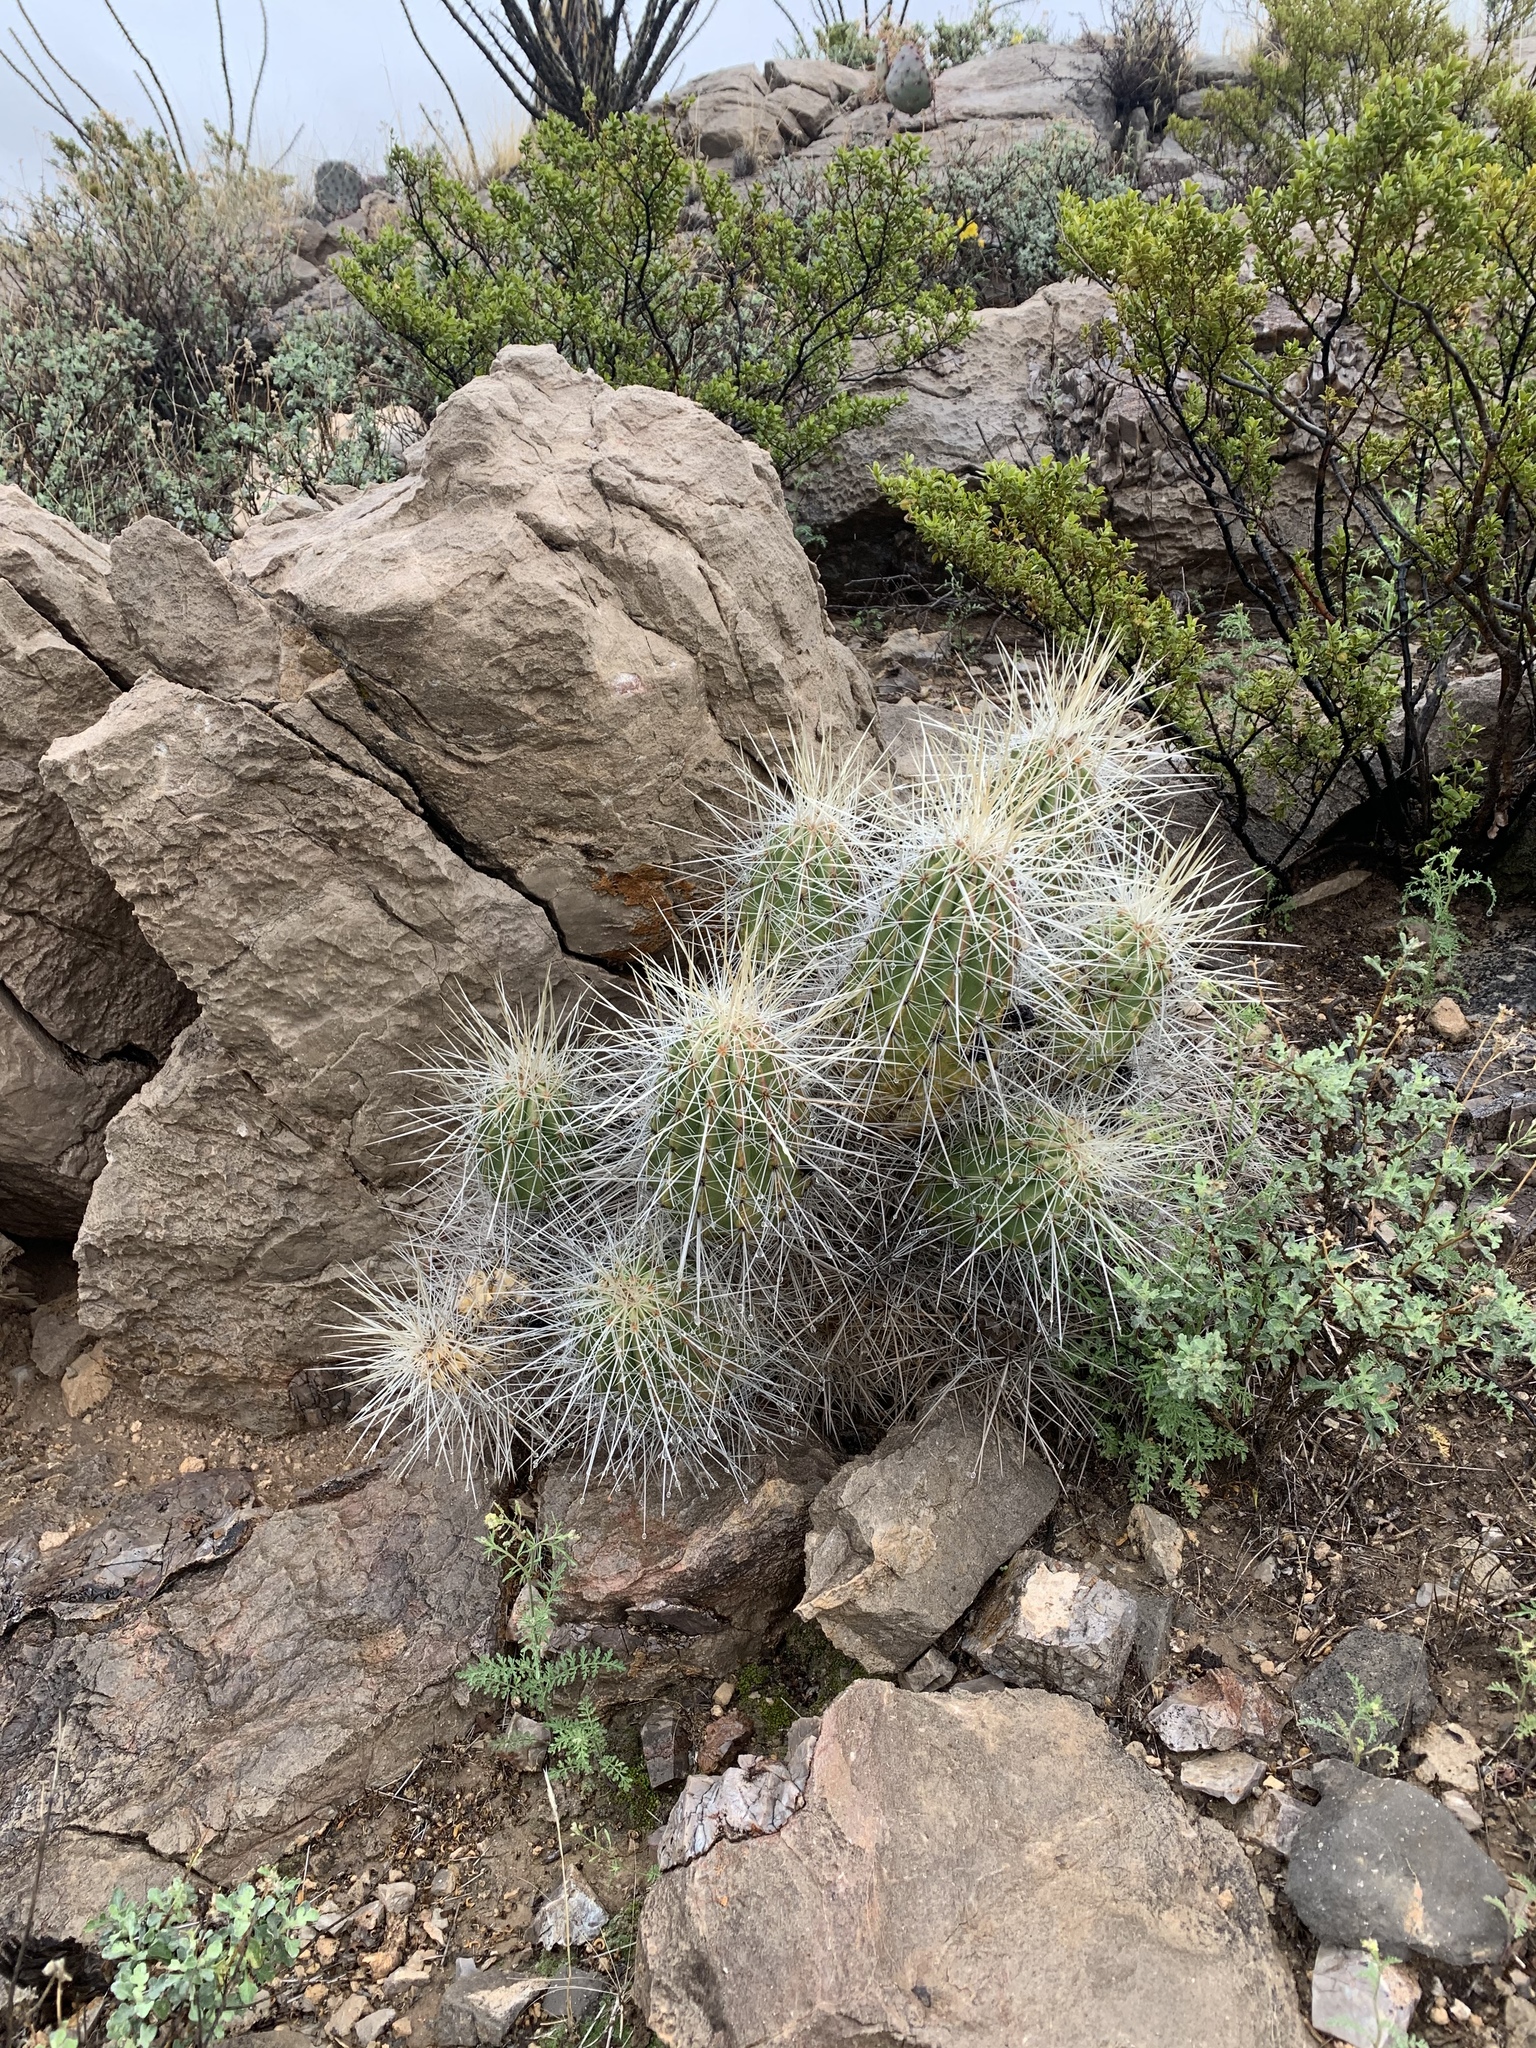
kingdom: Plantae
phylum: Tracheophyta
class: Magnoliopsida
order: Caryophyllales
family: Cactaceae
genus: Echinocereus
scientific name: Echinocereus stramineus
